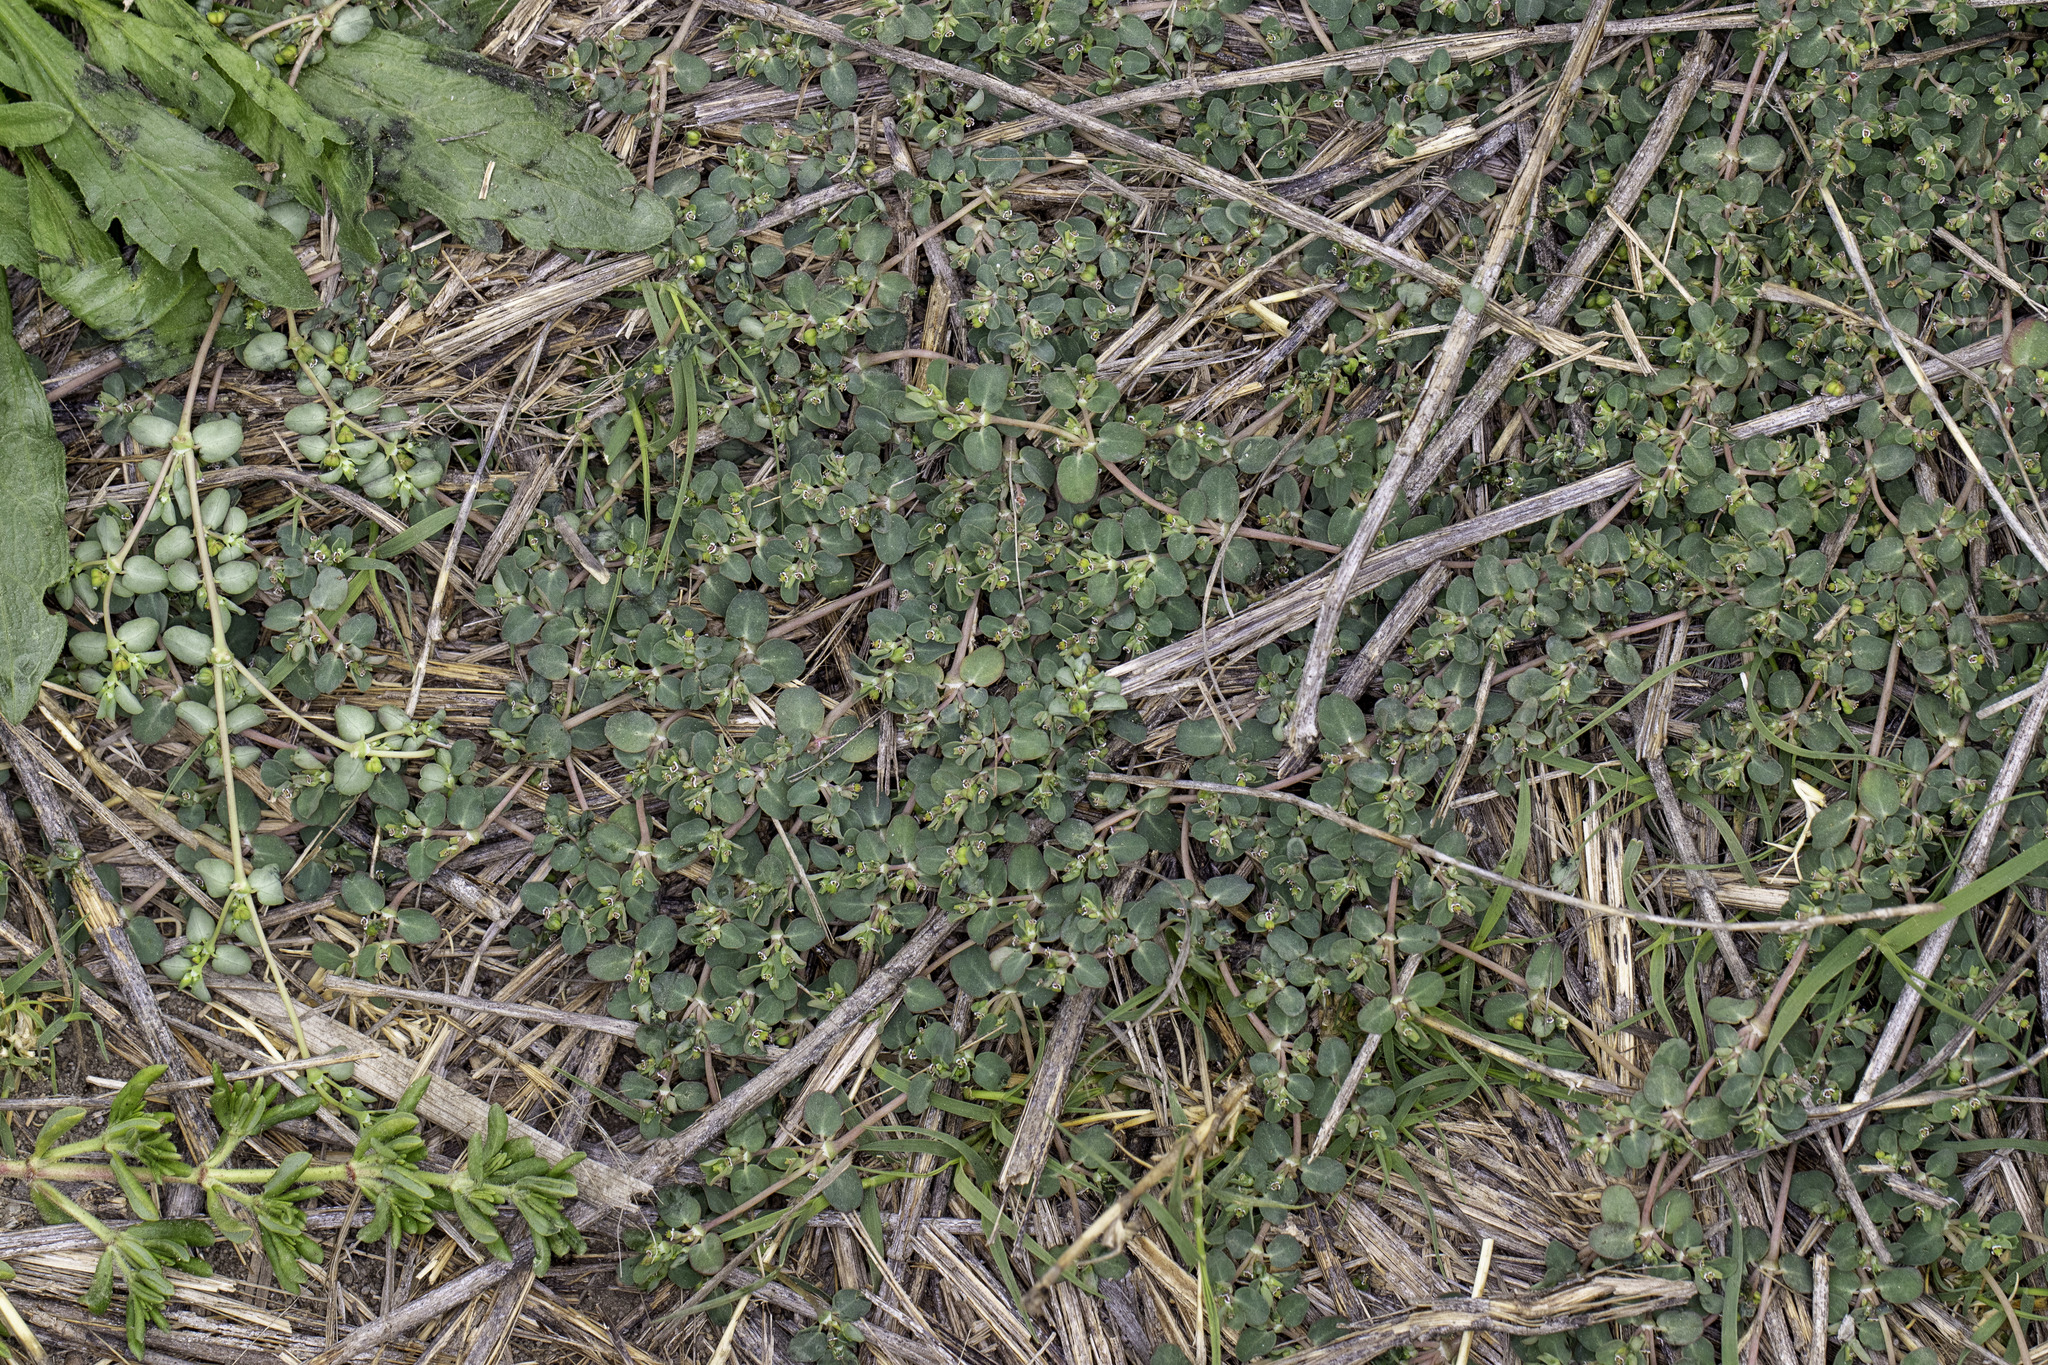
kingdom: Plantae
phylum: Tracheophyta
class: Magnoliopsida
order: Malpighiales
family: Euphorbiaceae
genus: Euphorbia
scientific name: Euphorbia serpens
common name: Matted sandmat
